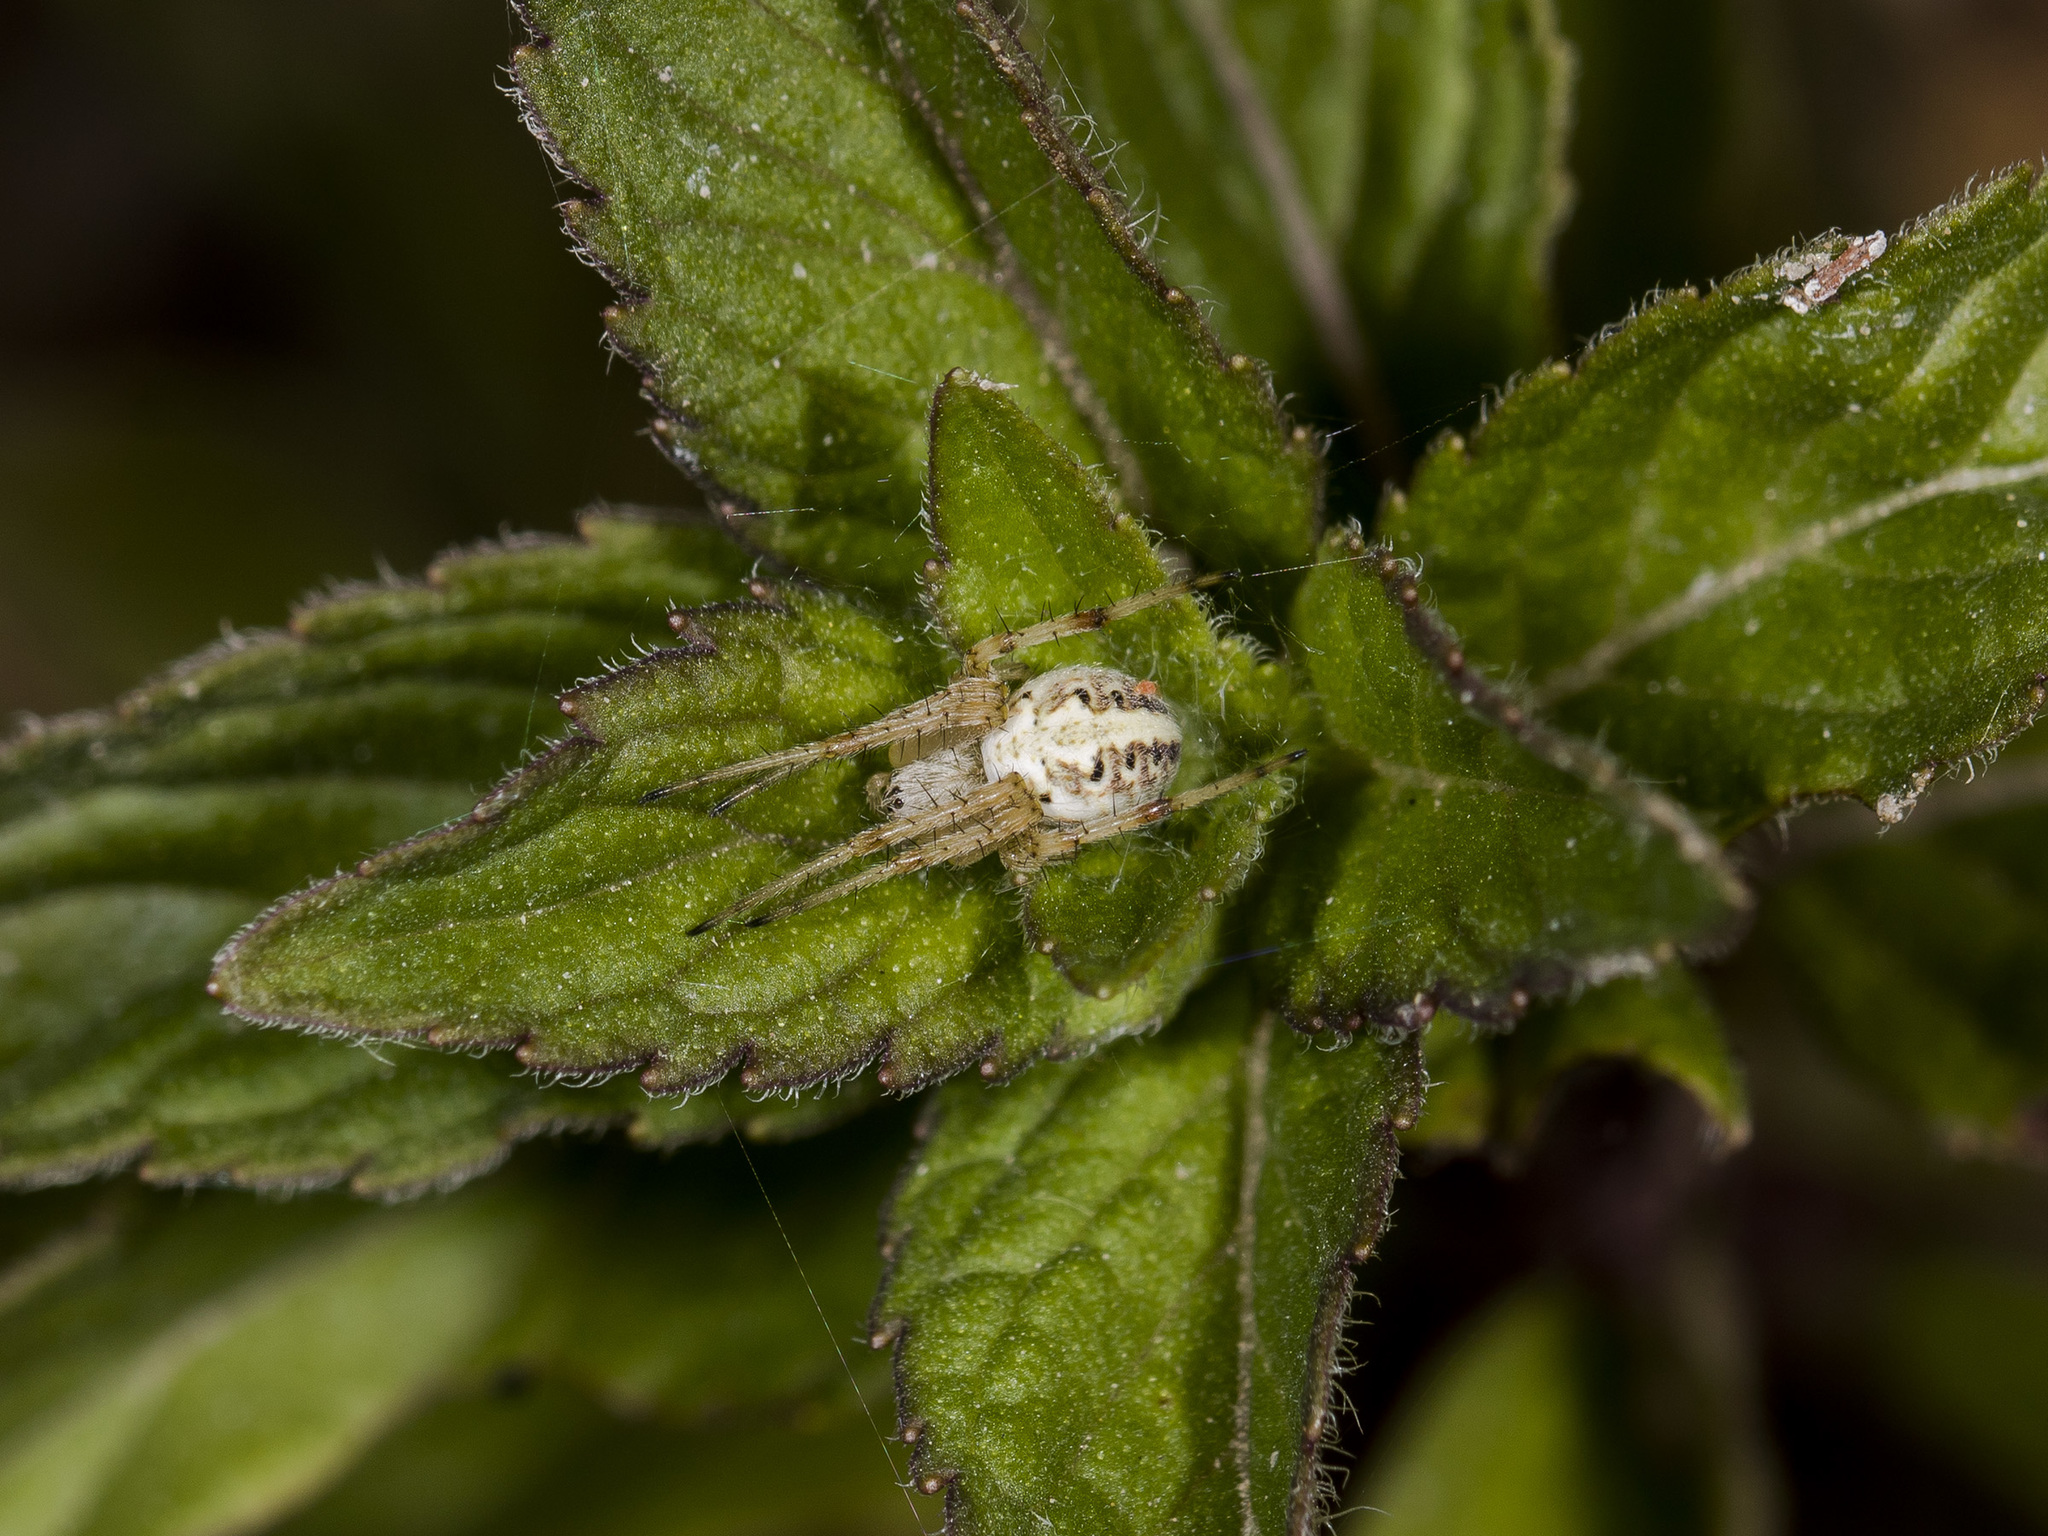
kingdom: Animalia
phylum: Arthropoda
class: Arachnida
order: Araneae
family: Araneidae
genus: Neoscona
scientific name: Neoscona adianta
